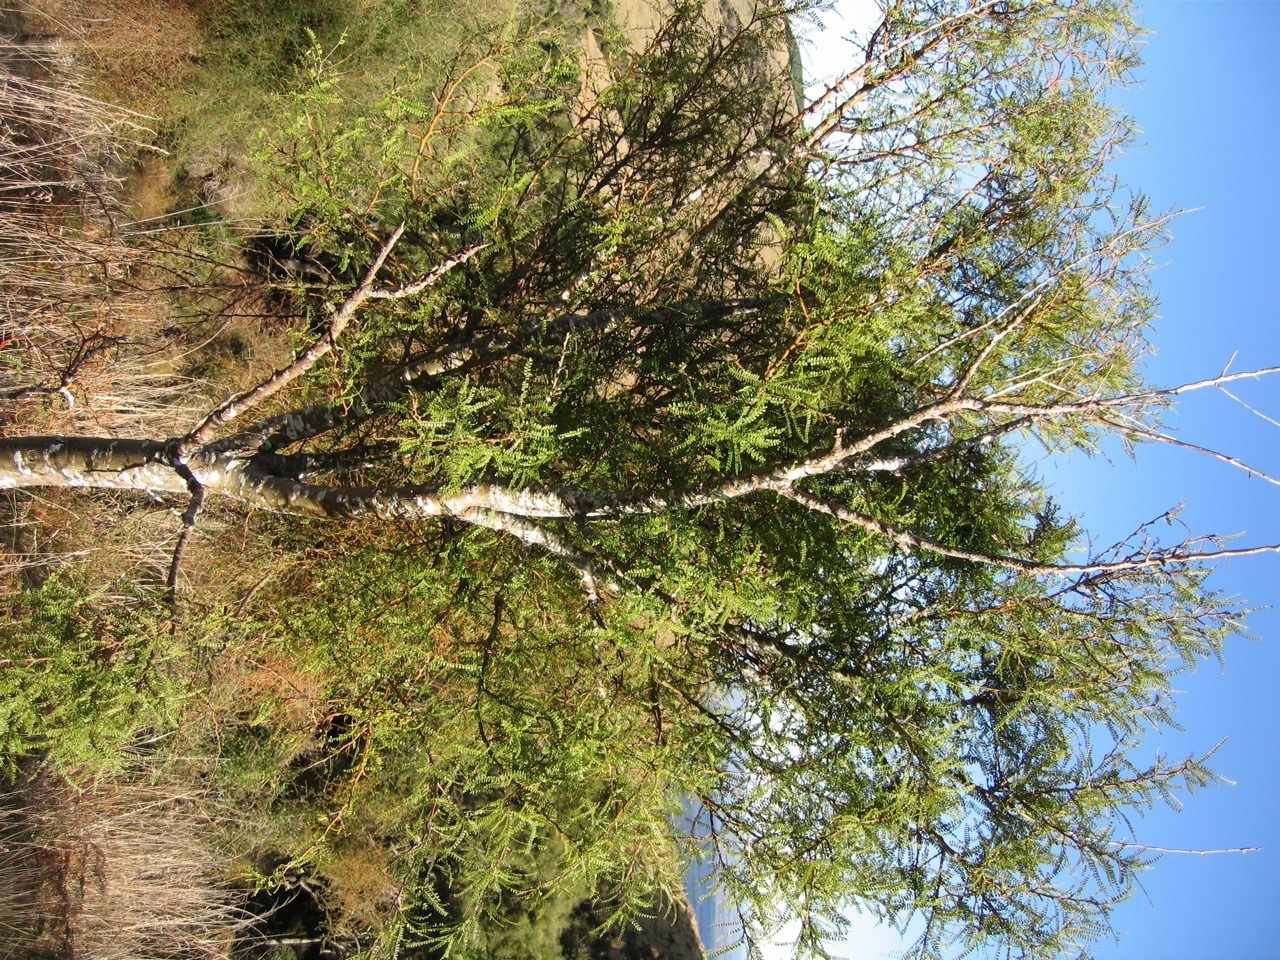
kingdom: Plantae
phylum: Tracheophyta
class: Magnoliopsida
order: Fabales
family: Fabaceae
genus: Sophora
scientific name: Sophora microphylla
